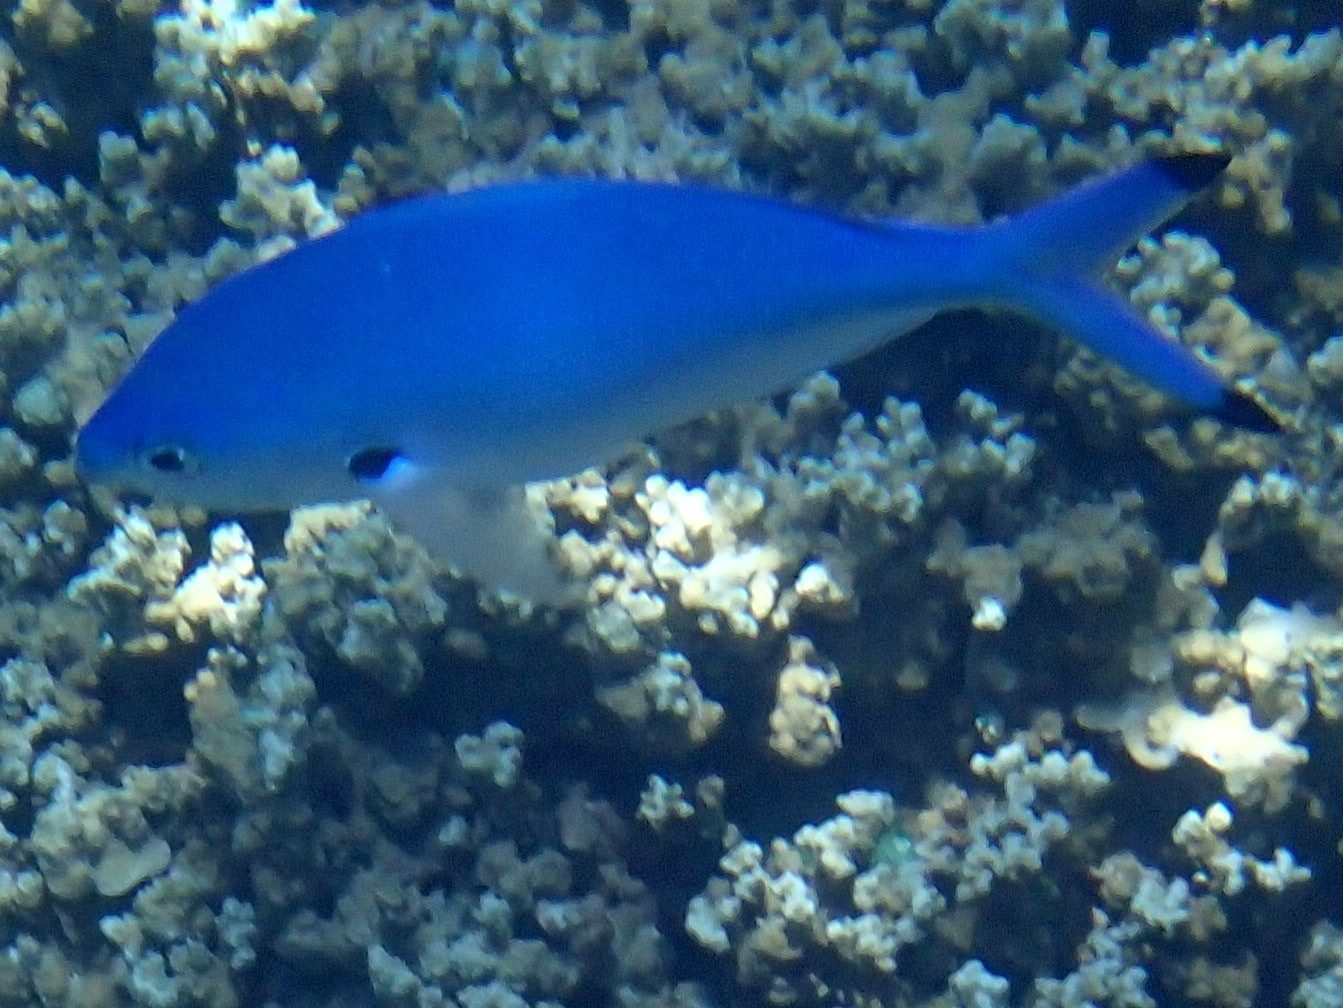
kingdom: Animalia
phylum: Chordata
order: Perciformes
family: Caesionidae
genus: Caesio
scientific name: Caesio lunaris
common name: Blue fusilier
